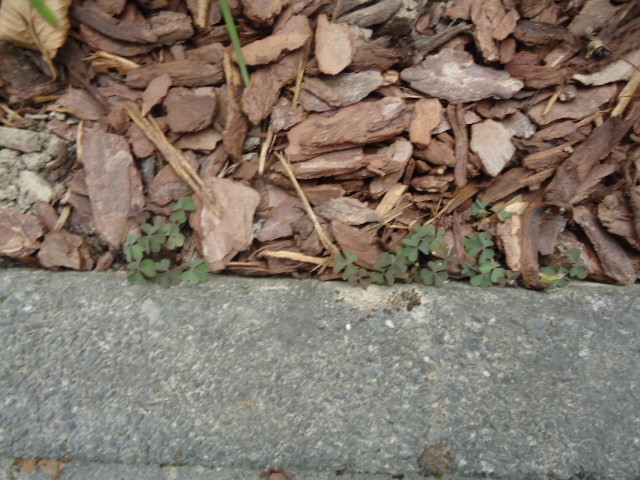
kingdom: Plantae
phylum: Tracheophyta
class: Magnoliopsida
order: Oxalidales
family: Oxalidaceae
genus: Oxalis
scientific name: Oxalis corniculata
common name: Procumbent yellow-sorrel
